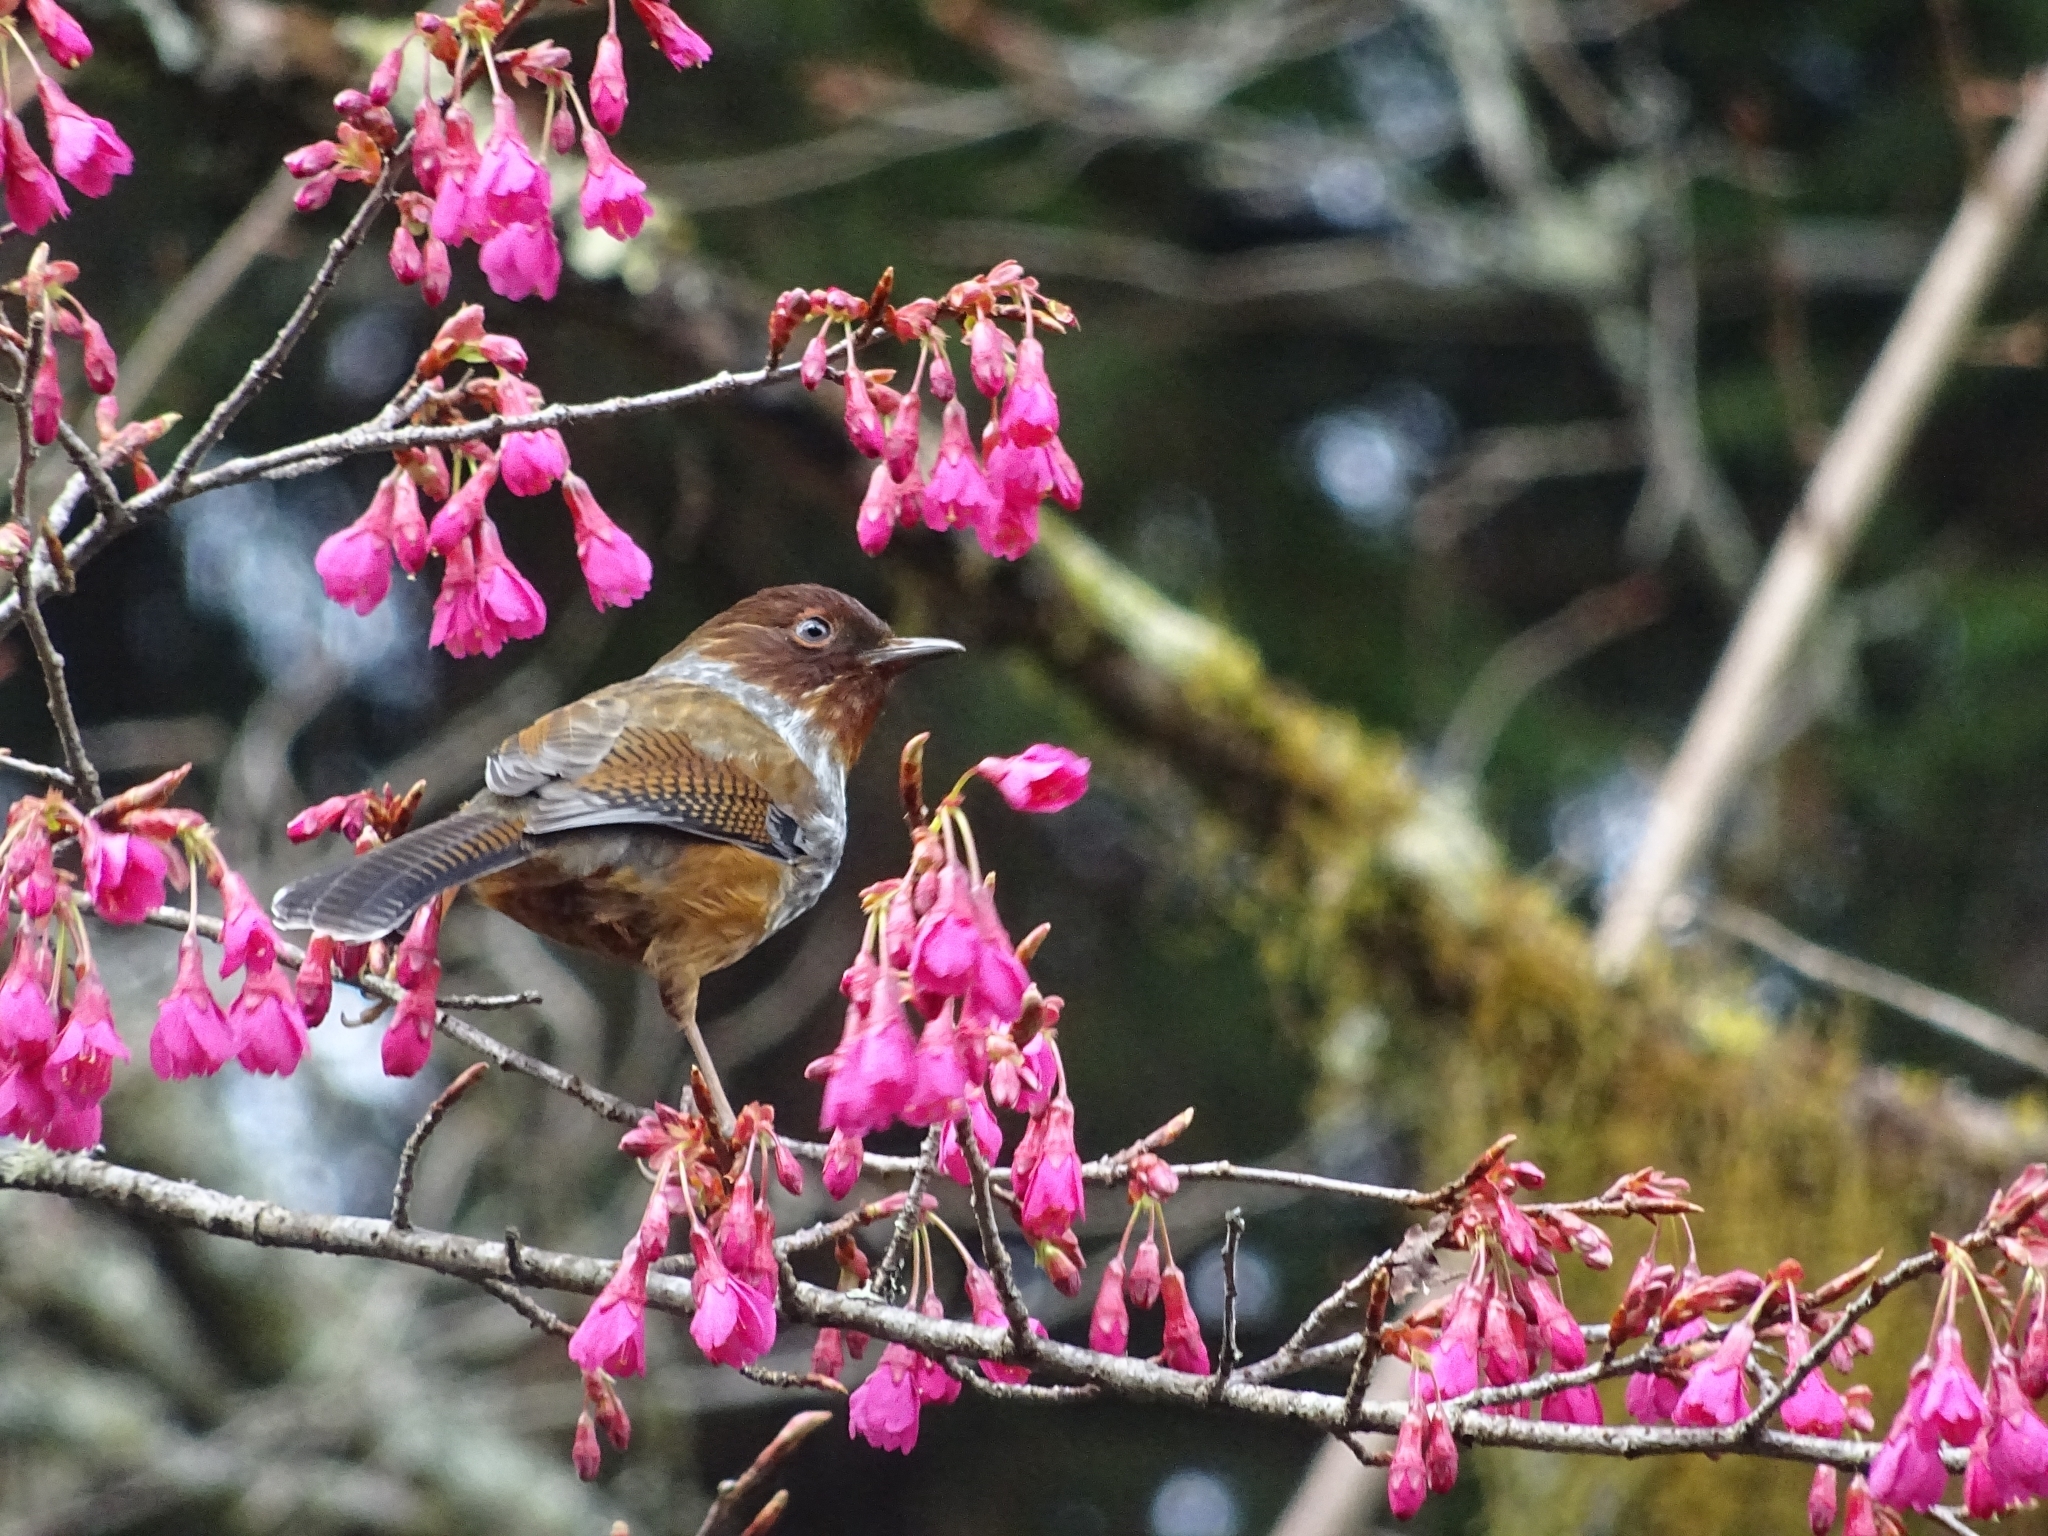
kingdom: Animalia
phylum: Chordata
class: Aves
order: Passeriformes
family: Leiothrichidae
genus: Actinodura
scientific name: Actinodura morrisoniana
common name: Taiwan barwing
